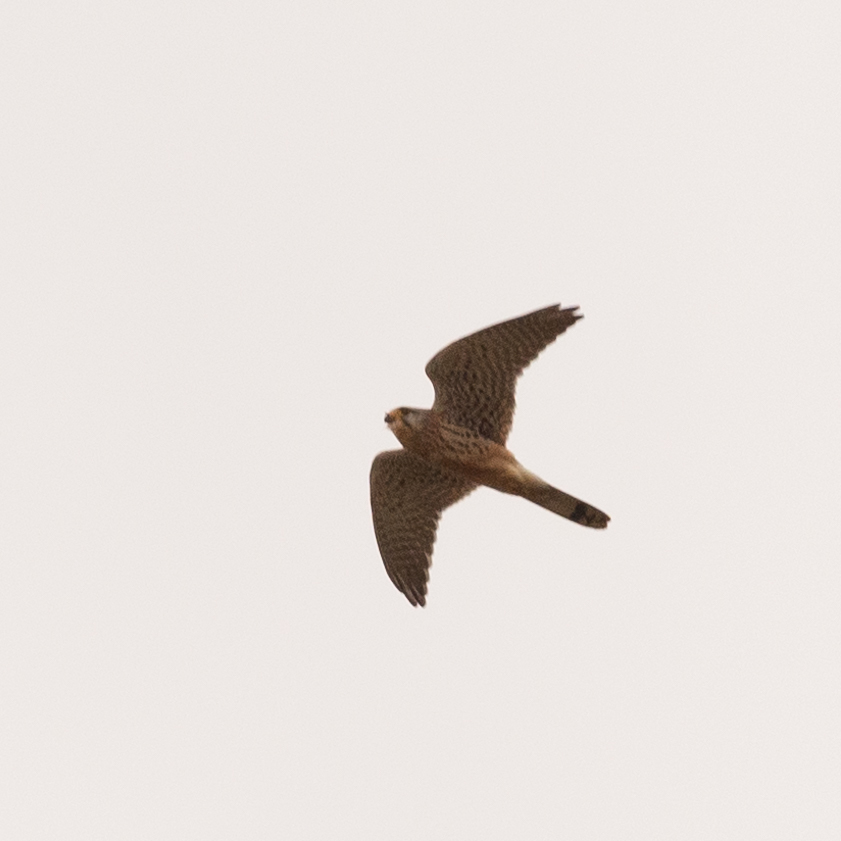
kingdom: Animalia
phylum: Chordata
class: Aves
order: Falconiformes
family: Falconidae
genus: Falco
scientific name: Falco tinnunculus
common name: Common kestrel
